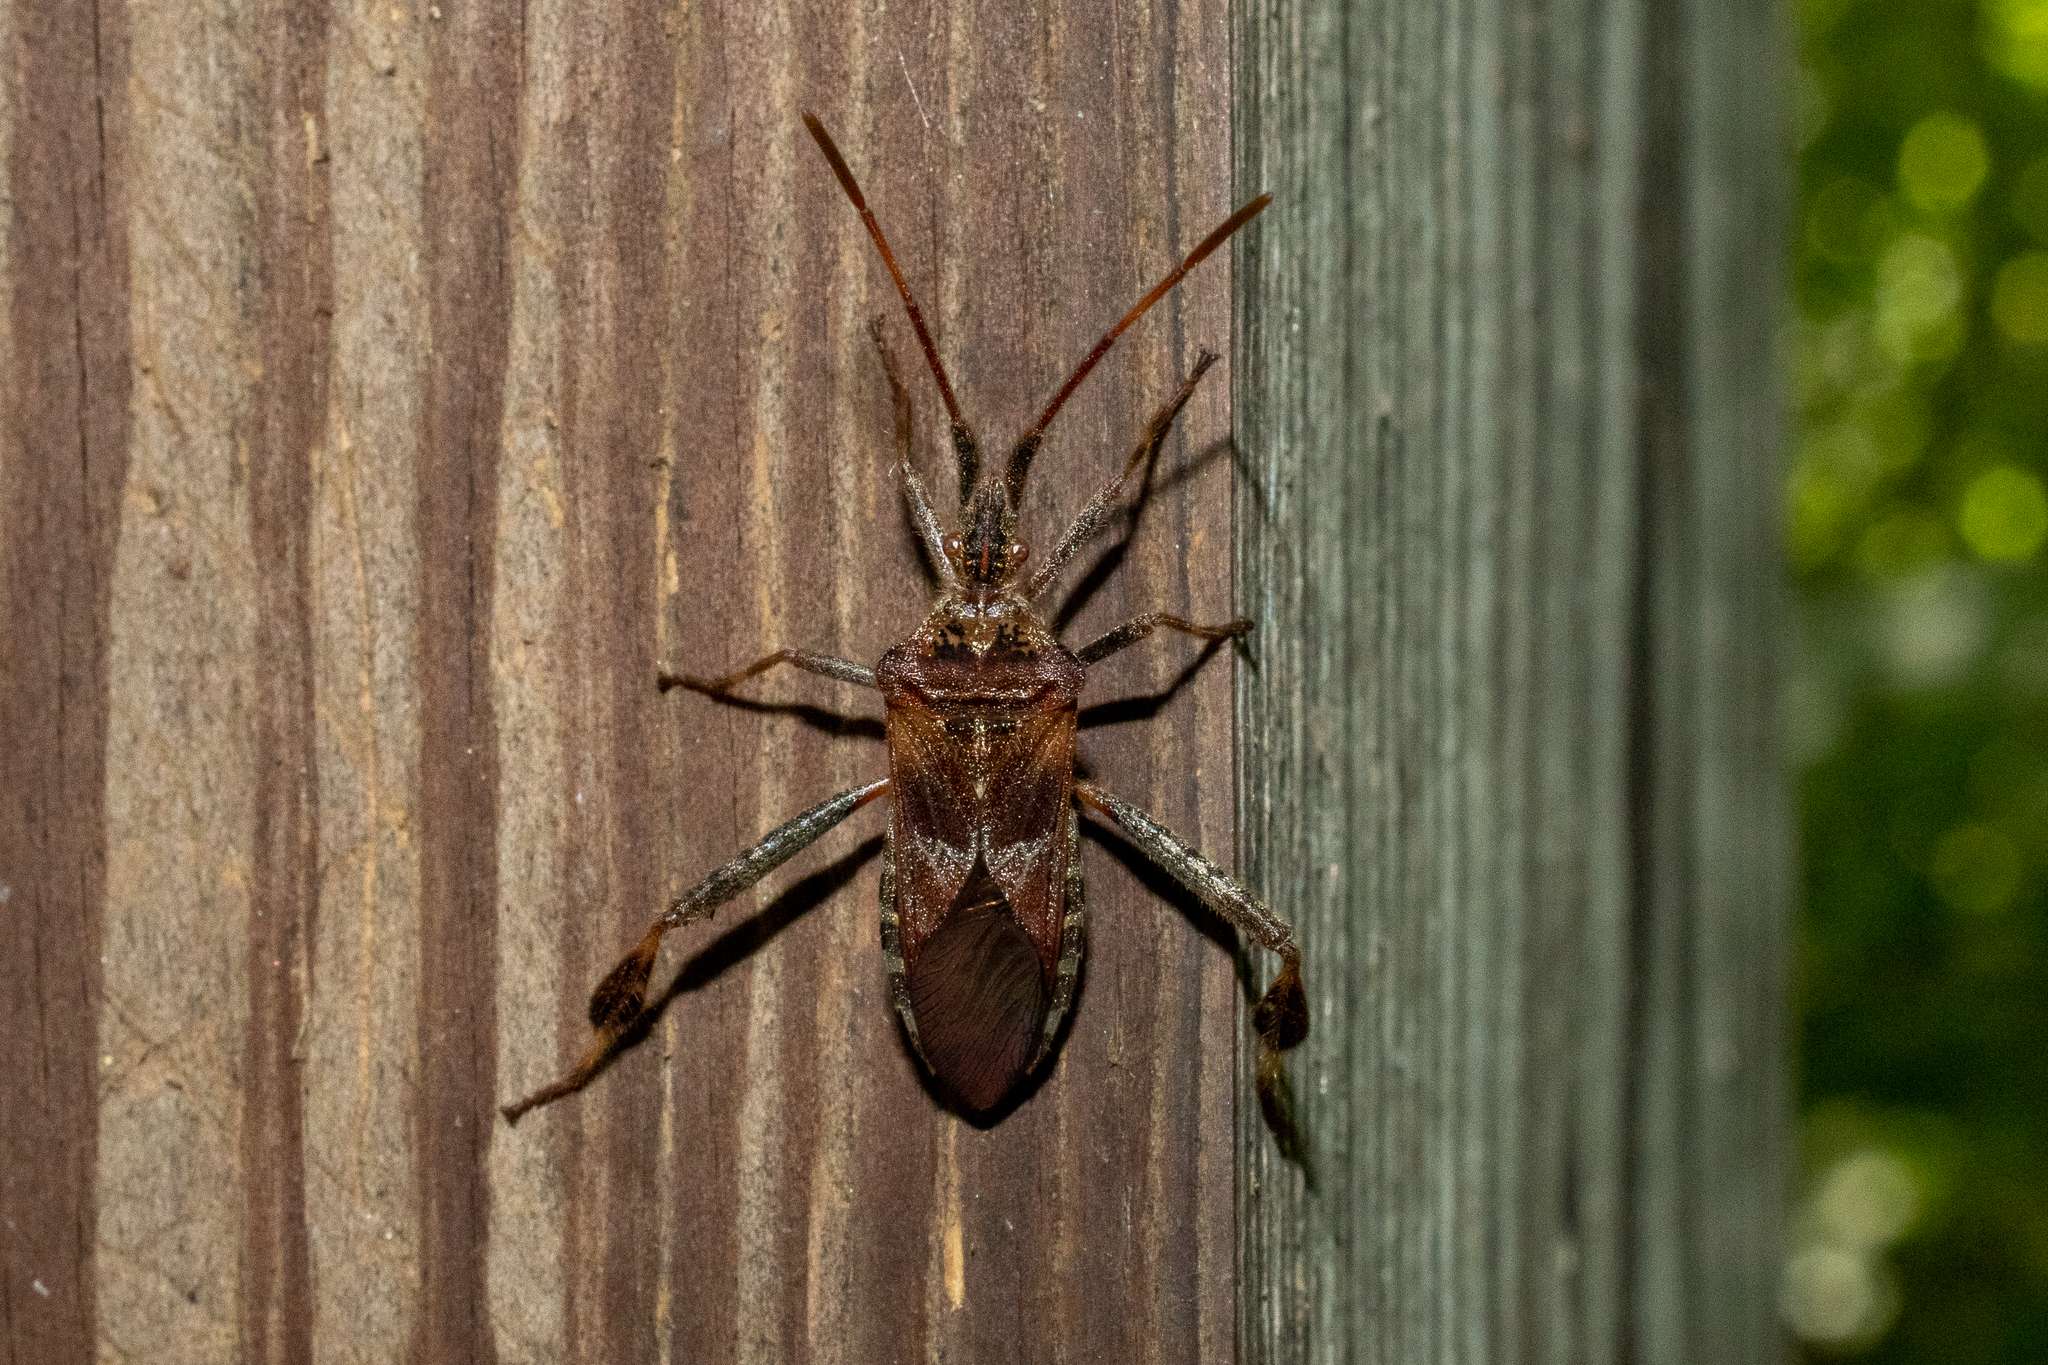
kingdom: Animalia
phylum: Arthropoda
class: Insecta
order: Hemiptera
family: Coreidae
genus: Leptoglossus
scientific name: Leptoglossus occidentalis
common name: Western conifer-seed bug
